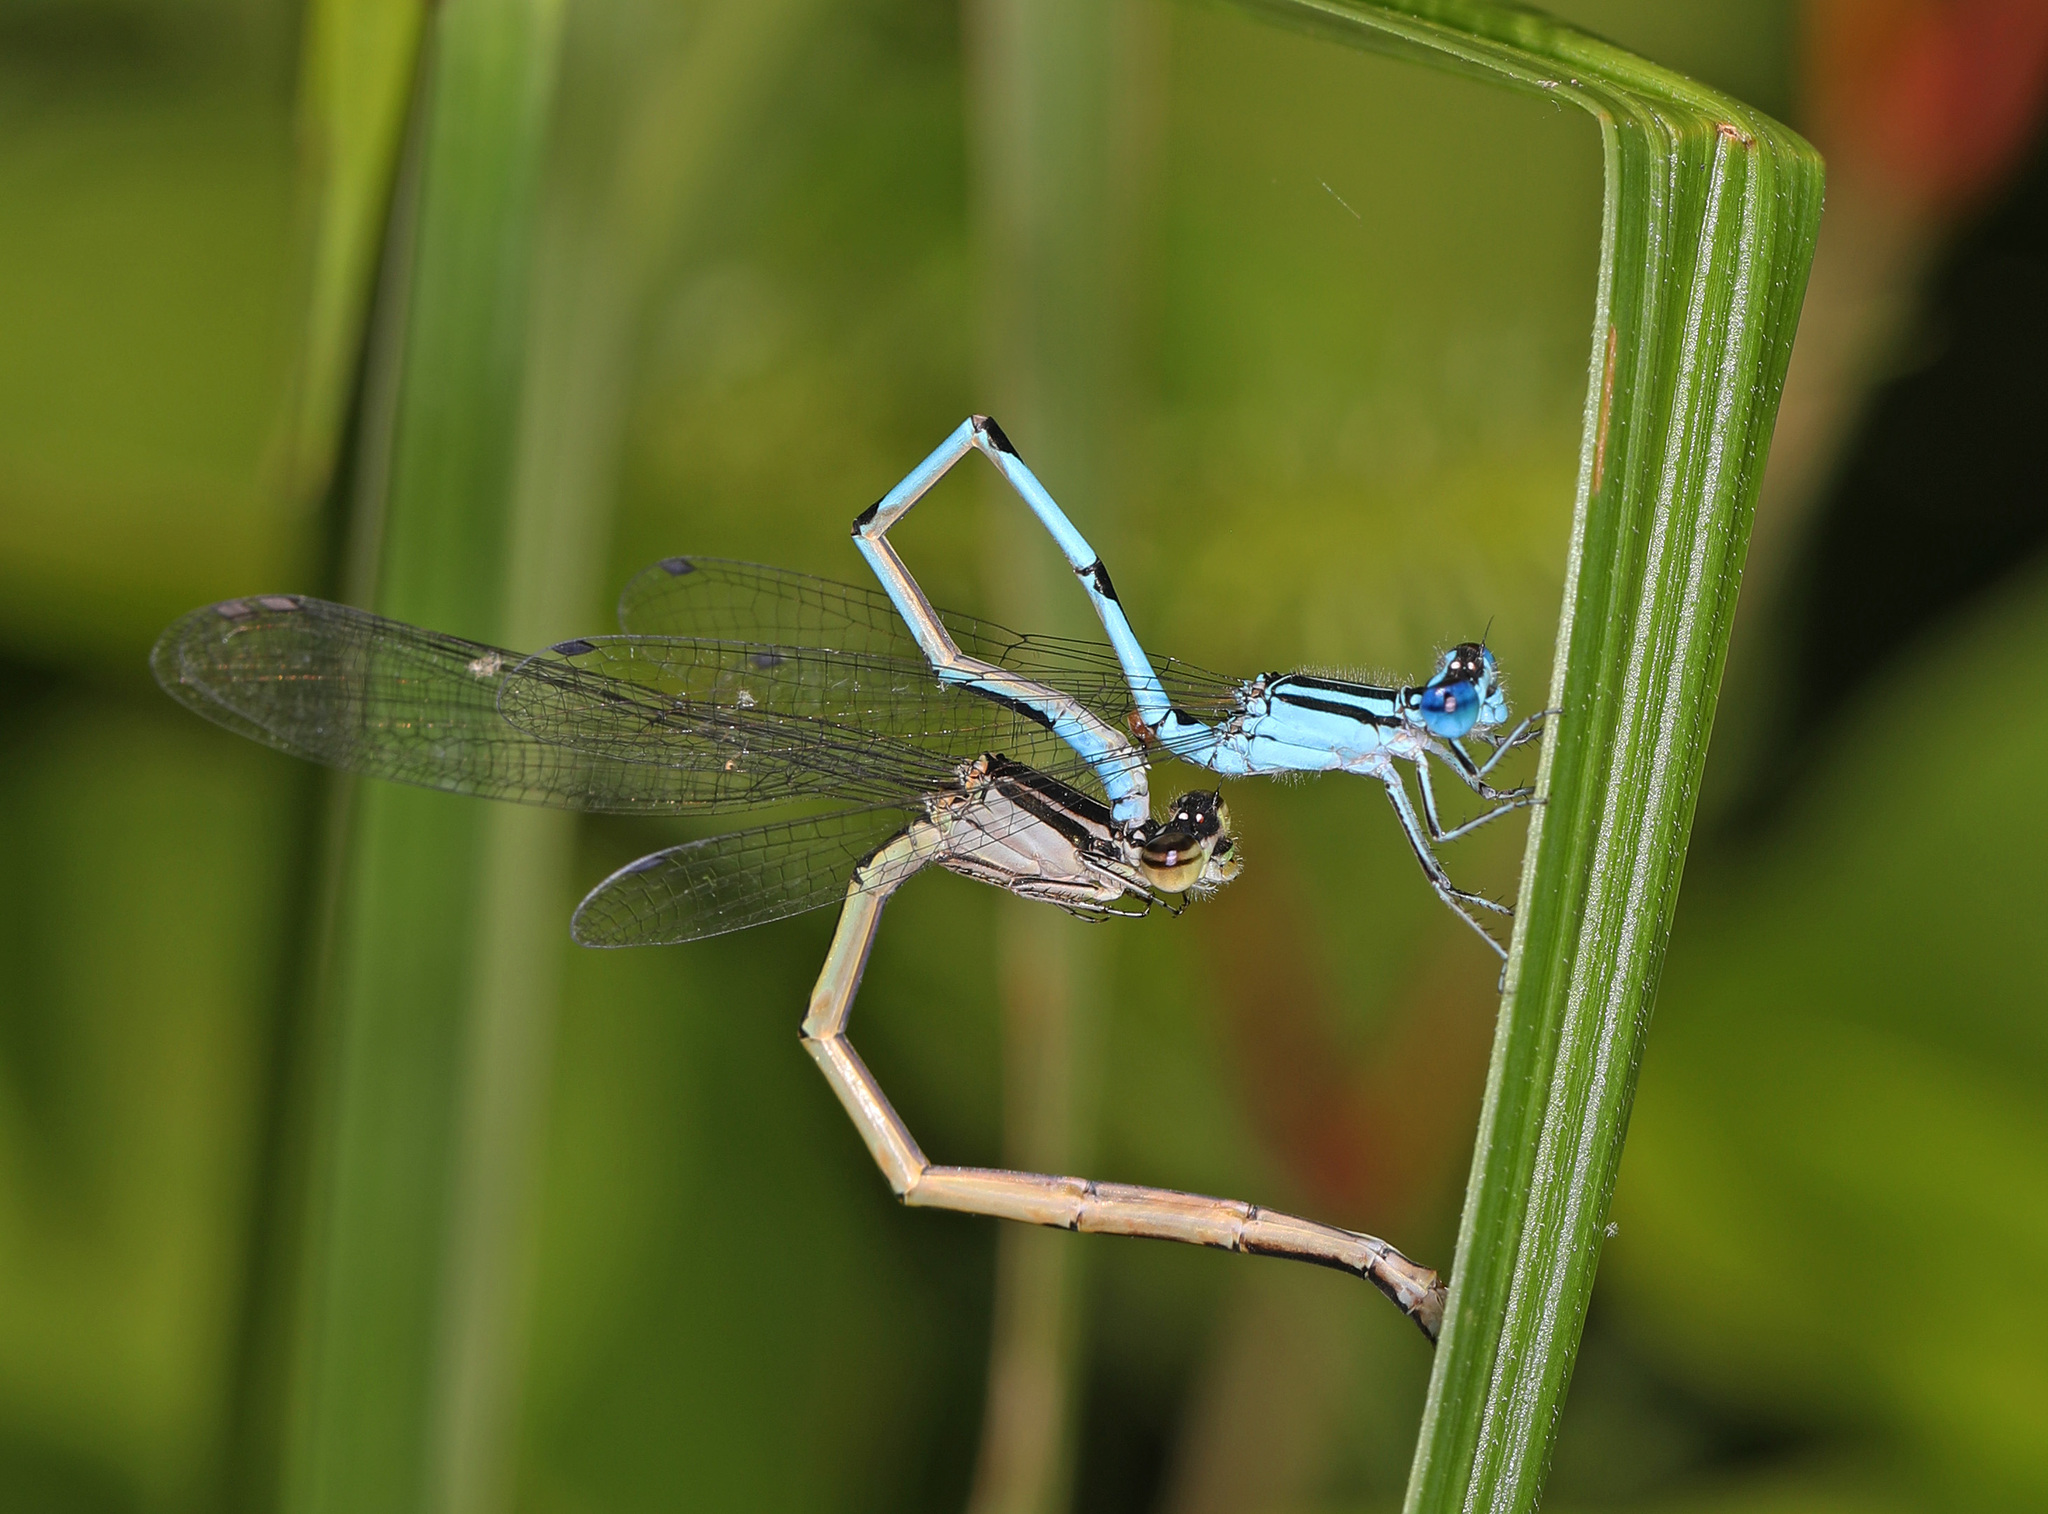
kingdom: Animalia
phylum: Arthropoda
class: Insecta
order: Odonata
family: Coenagrionidae
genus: Enallagma
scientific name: Enallagma durum
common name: Big bluet
